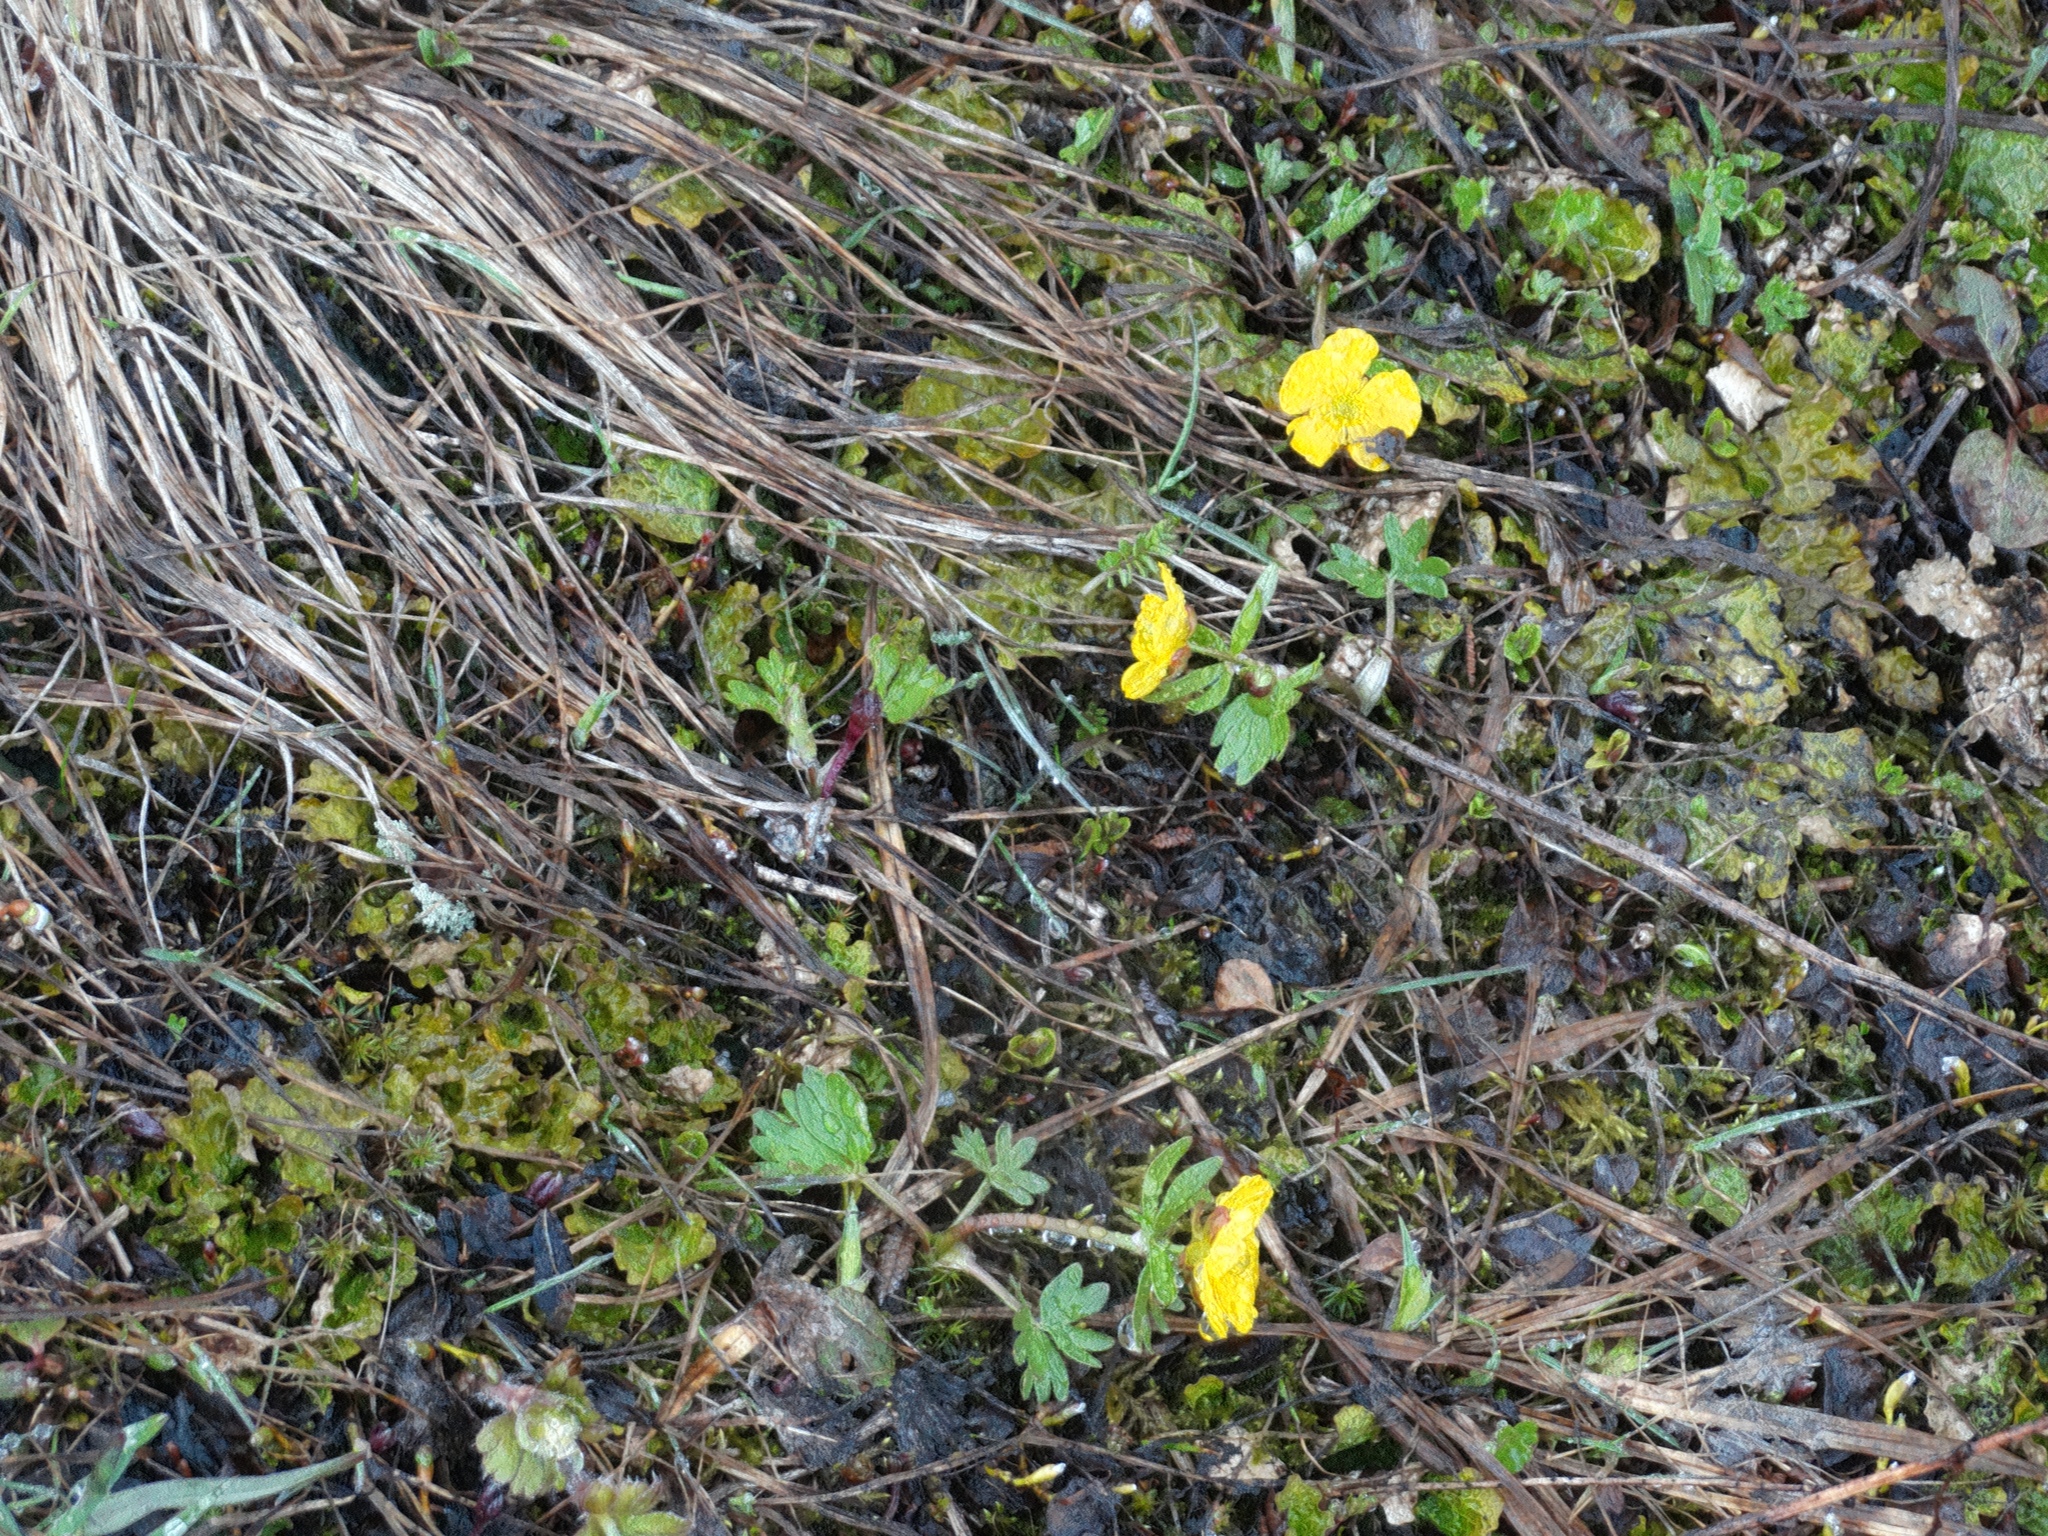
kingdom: Plantae
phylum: Tracheophyta
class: Magnoliopsida
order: Ranunculales
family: Ranunculaceae
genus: Ranunculus
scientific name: Ranunculus nivalis
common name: Snow buttercup
